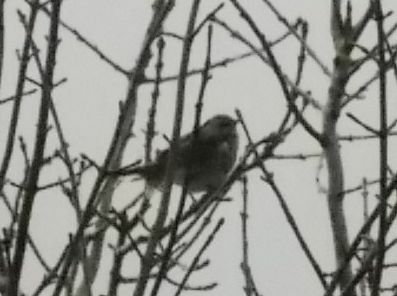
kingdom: Animalia
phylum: Chordata
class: Aves
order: Passeriformes
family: Turdidae
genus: Turdus
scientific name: Turdus pilaris
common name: Fieldfare
